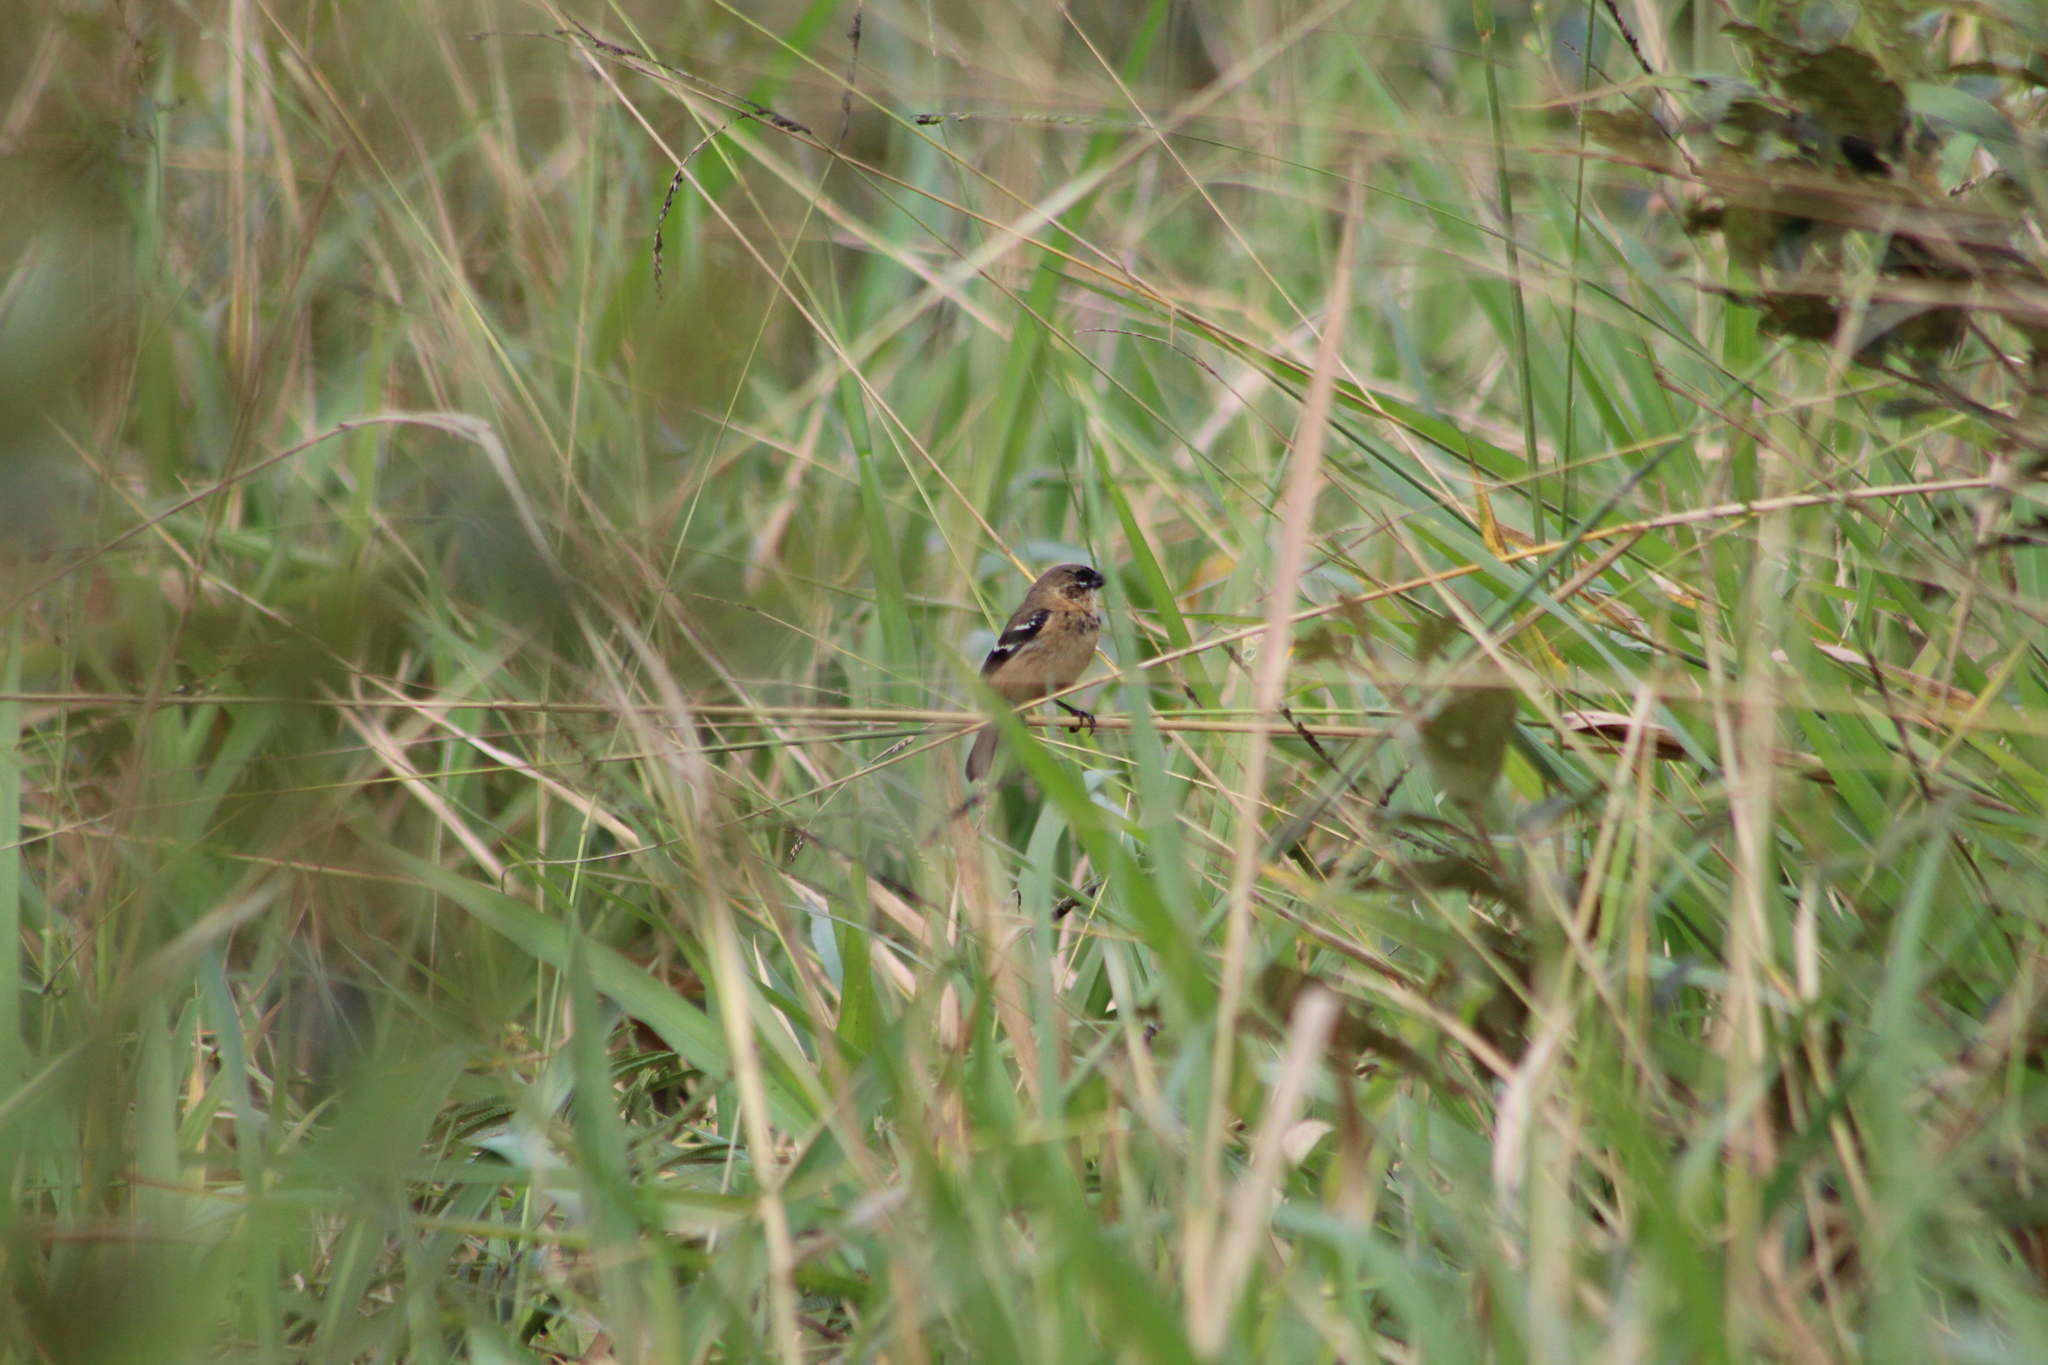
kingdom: Animalia
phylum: Chordata
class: Aves
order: Passeriformes
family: Thraupidae
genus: Sporophila
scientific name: Sporophila morelleti
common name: Morelet's seedeater
